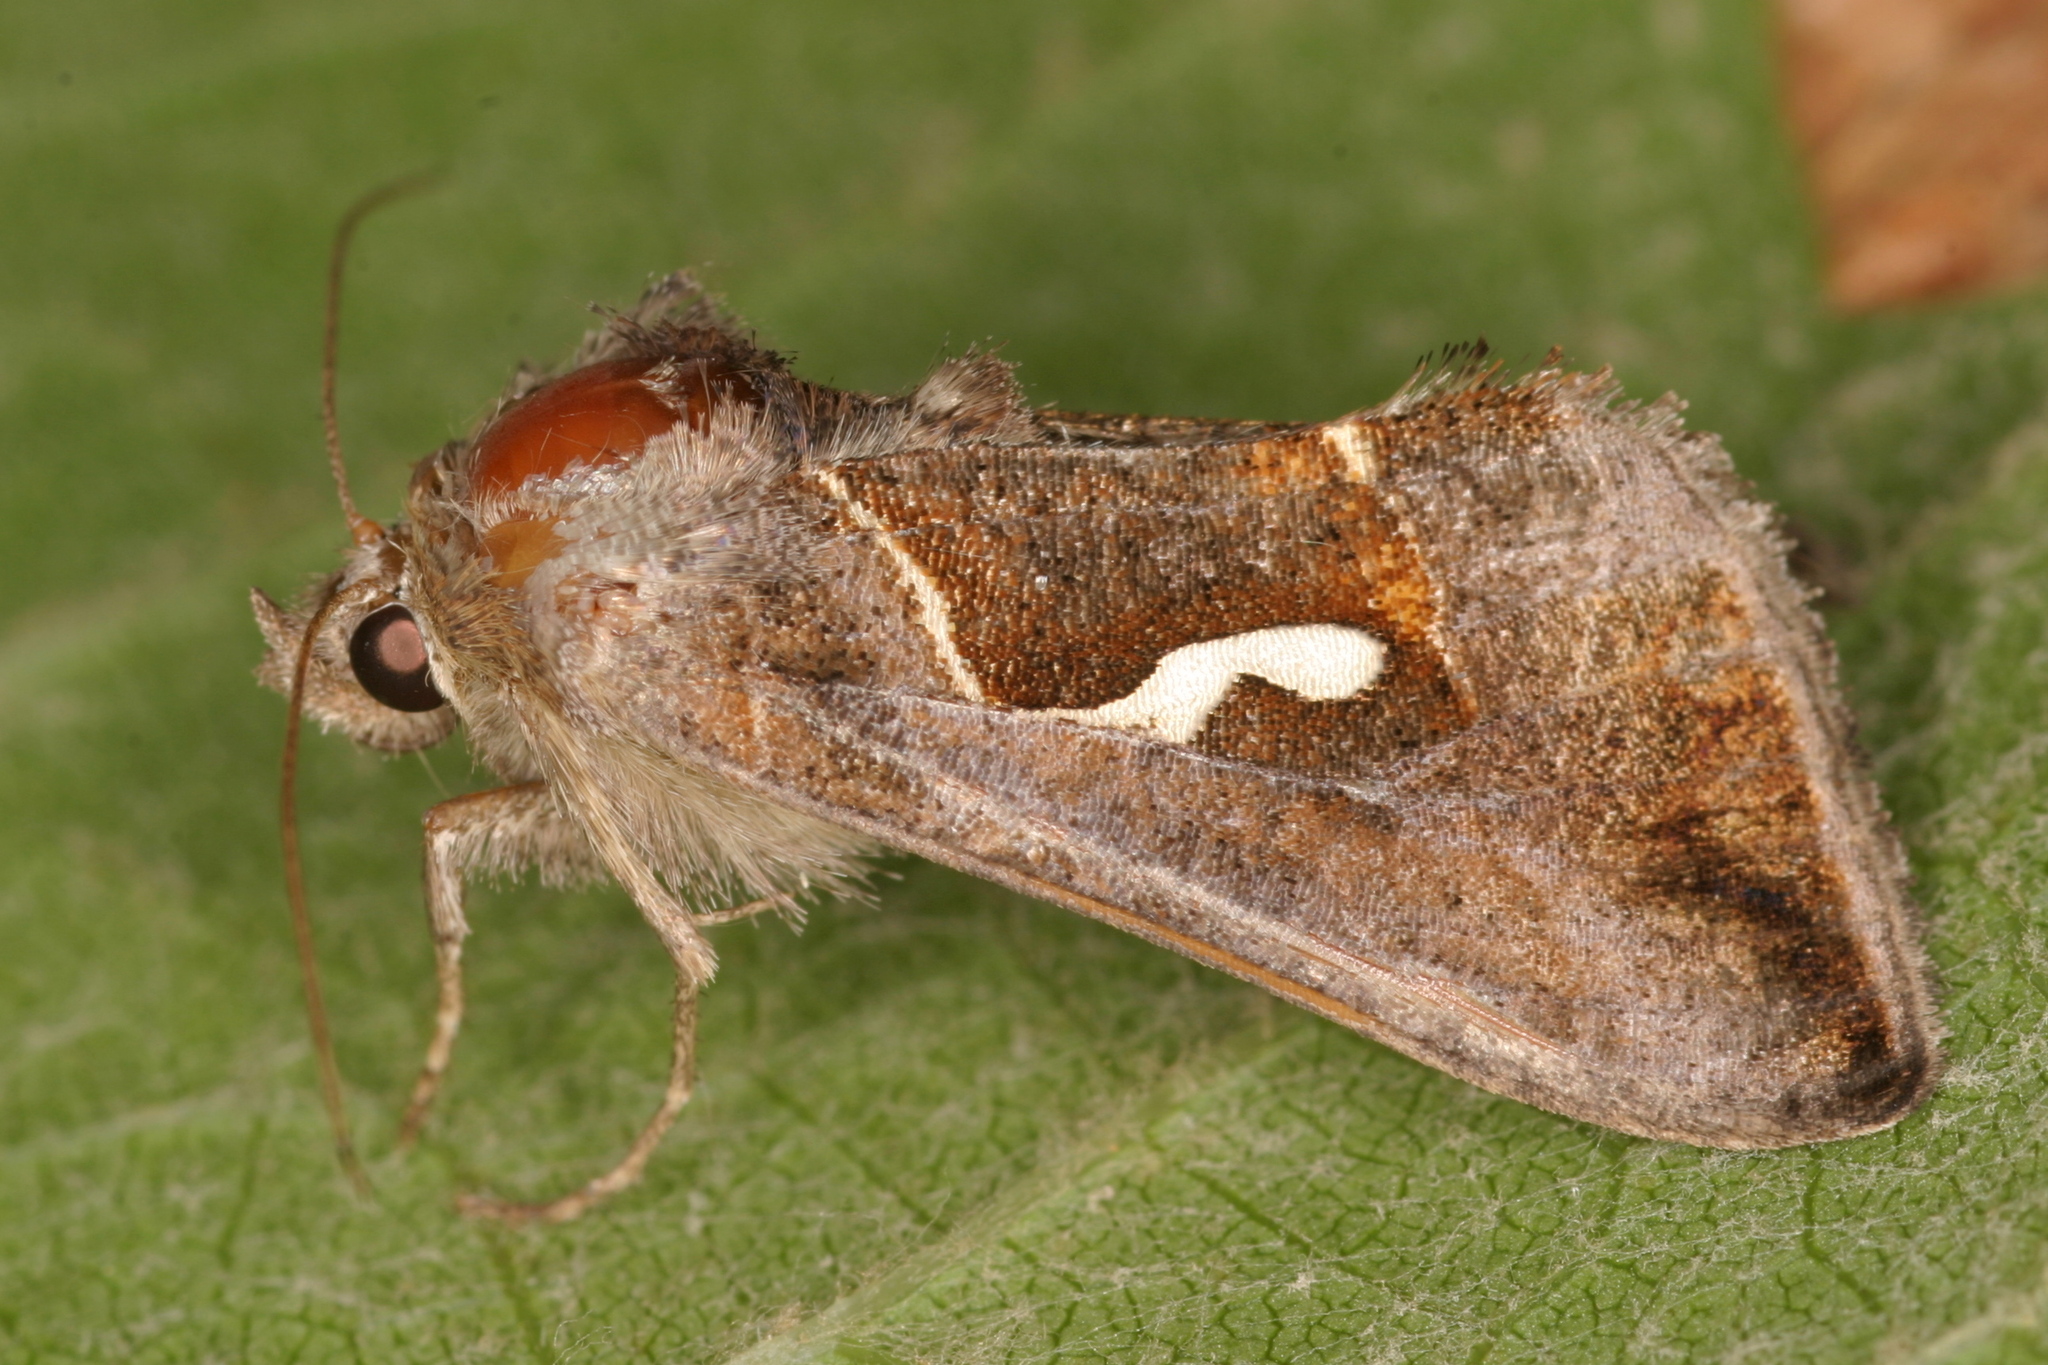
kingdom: Animalia
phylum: Arthropoda
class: Insecta
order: Lepidoptera
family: Noctuidae
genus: Macdunnoughia
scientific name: Macdunnoughia confusa
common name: Dewick's plusia
